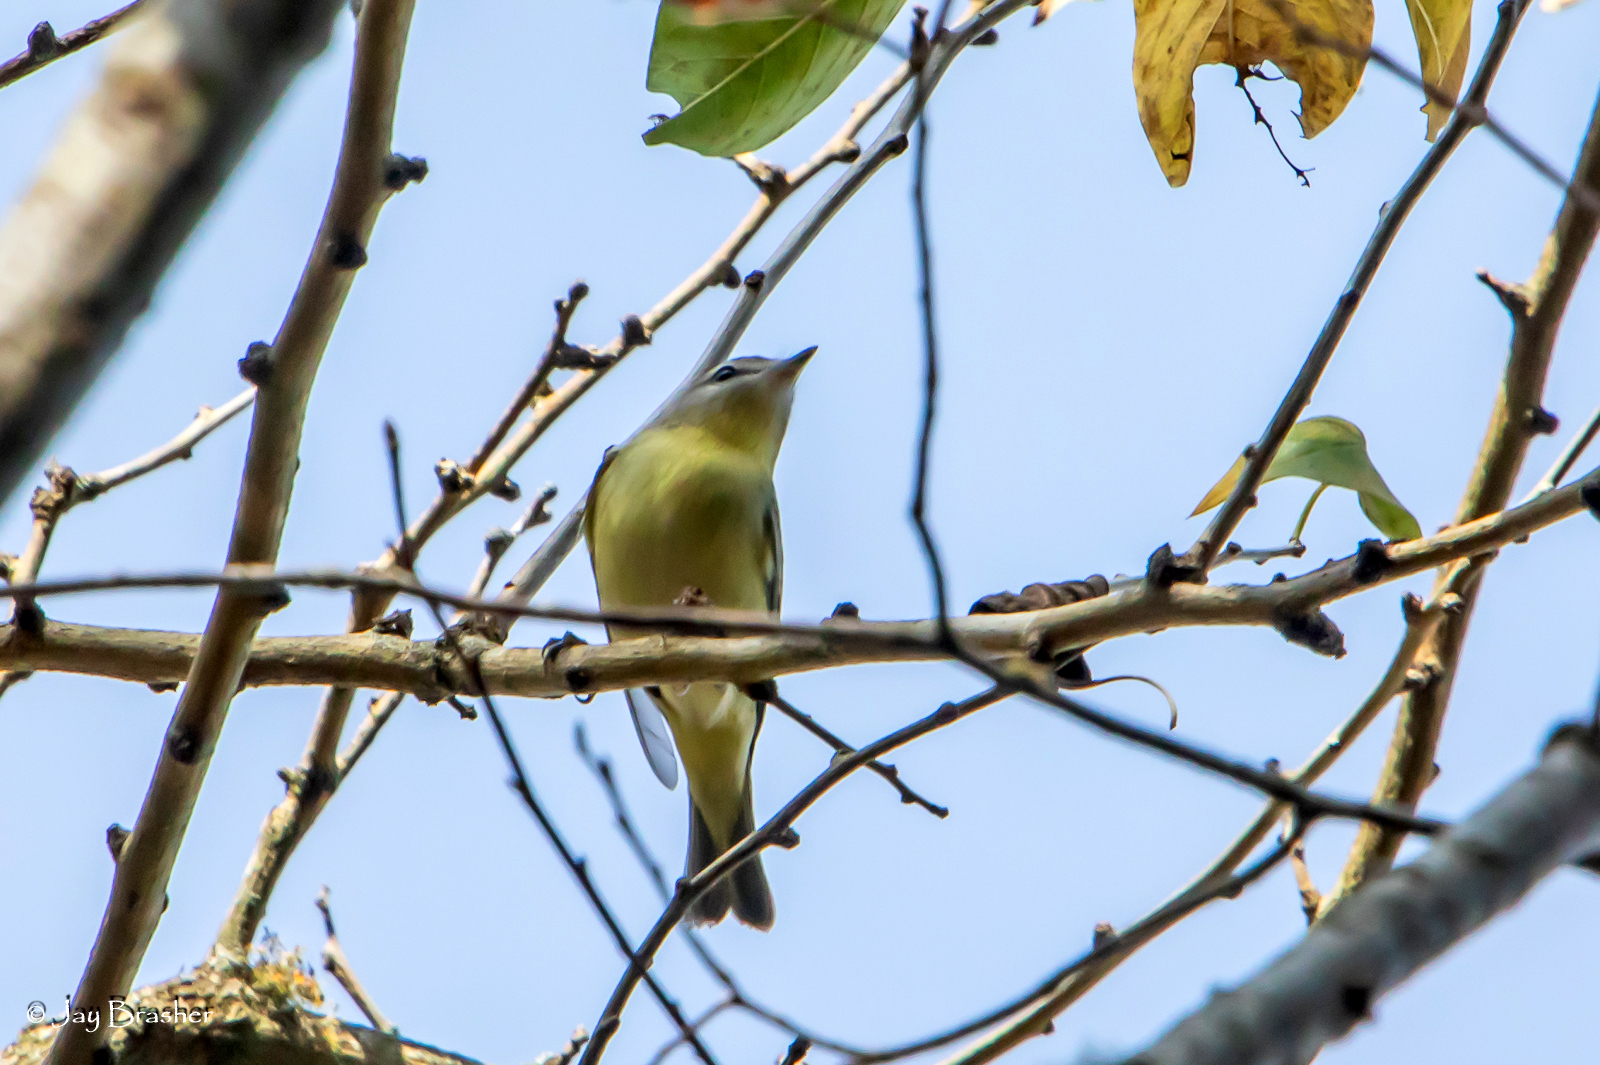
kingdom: Animalia
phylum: Chordata
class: Aves
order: Passeriformes
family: Vireonidae
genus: Vireo
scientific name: Vireo philadelphicus
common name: Philadelphia vireo
